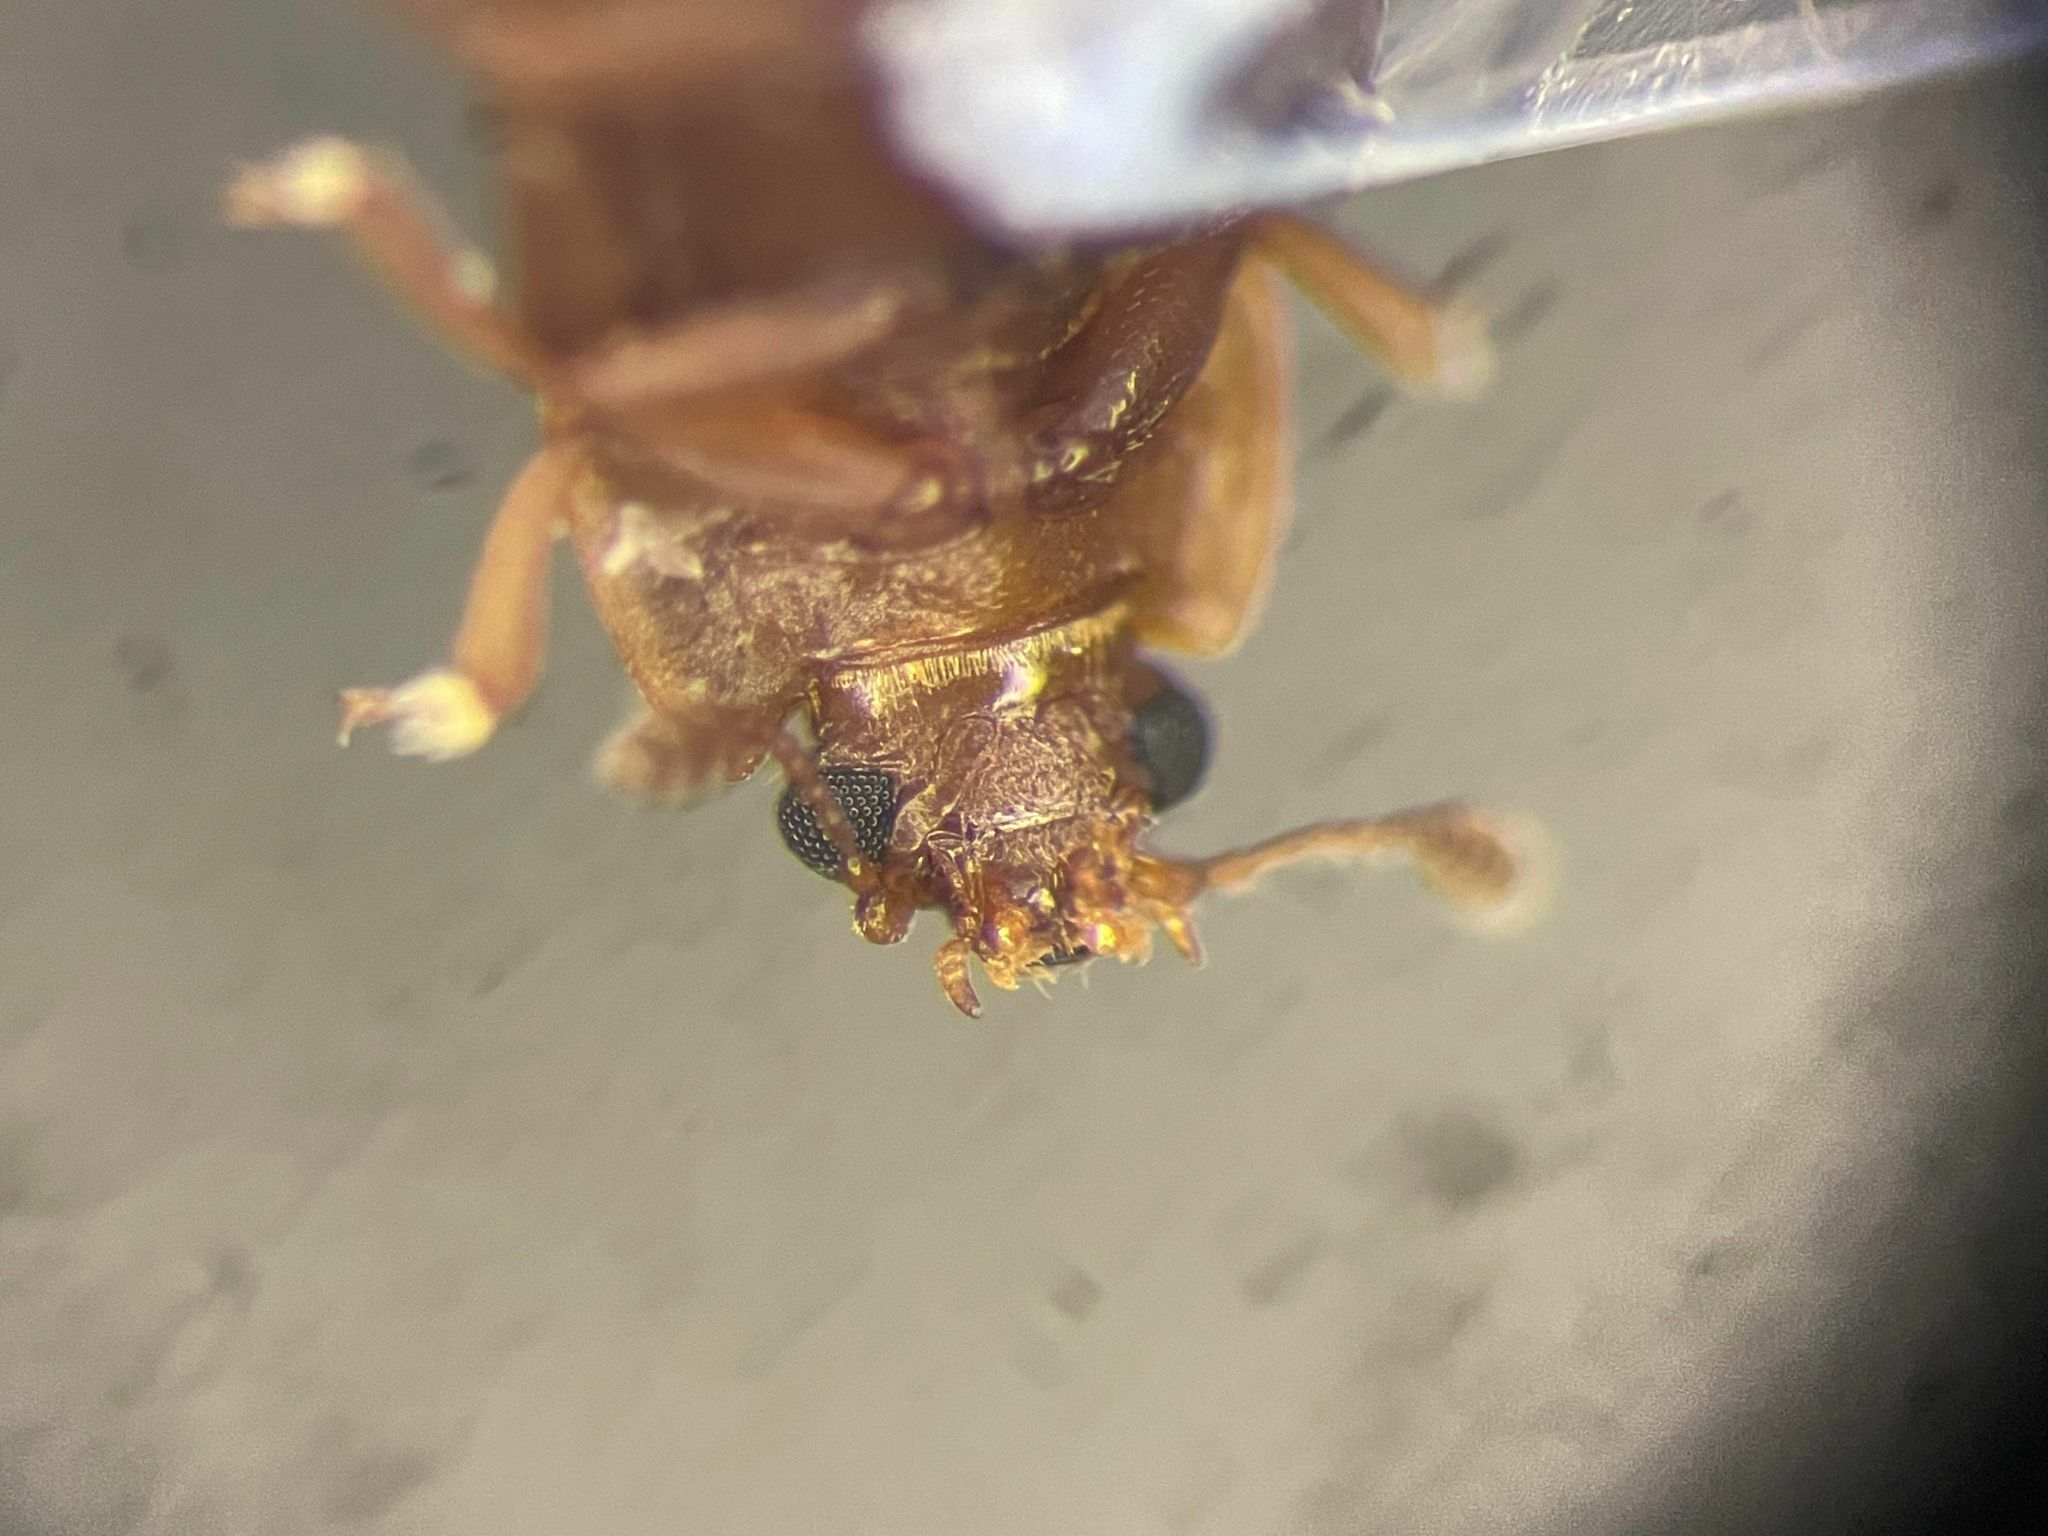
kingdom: Animalia
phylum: Arthropoda
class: Insecta
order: Coleoptera
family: Nitidulidae
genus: Epuraea
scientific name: Epuraea pallescens
